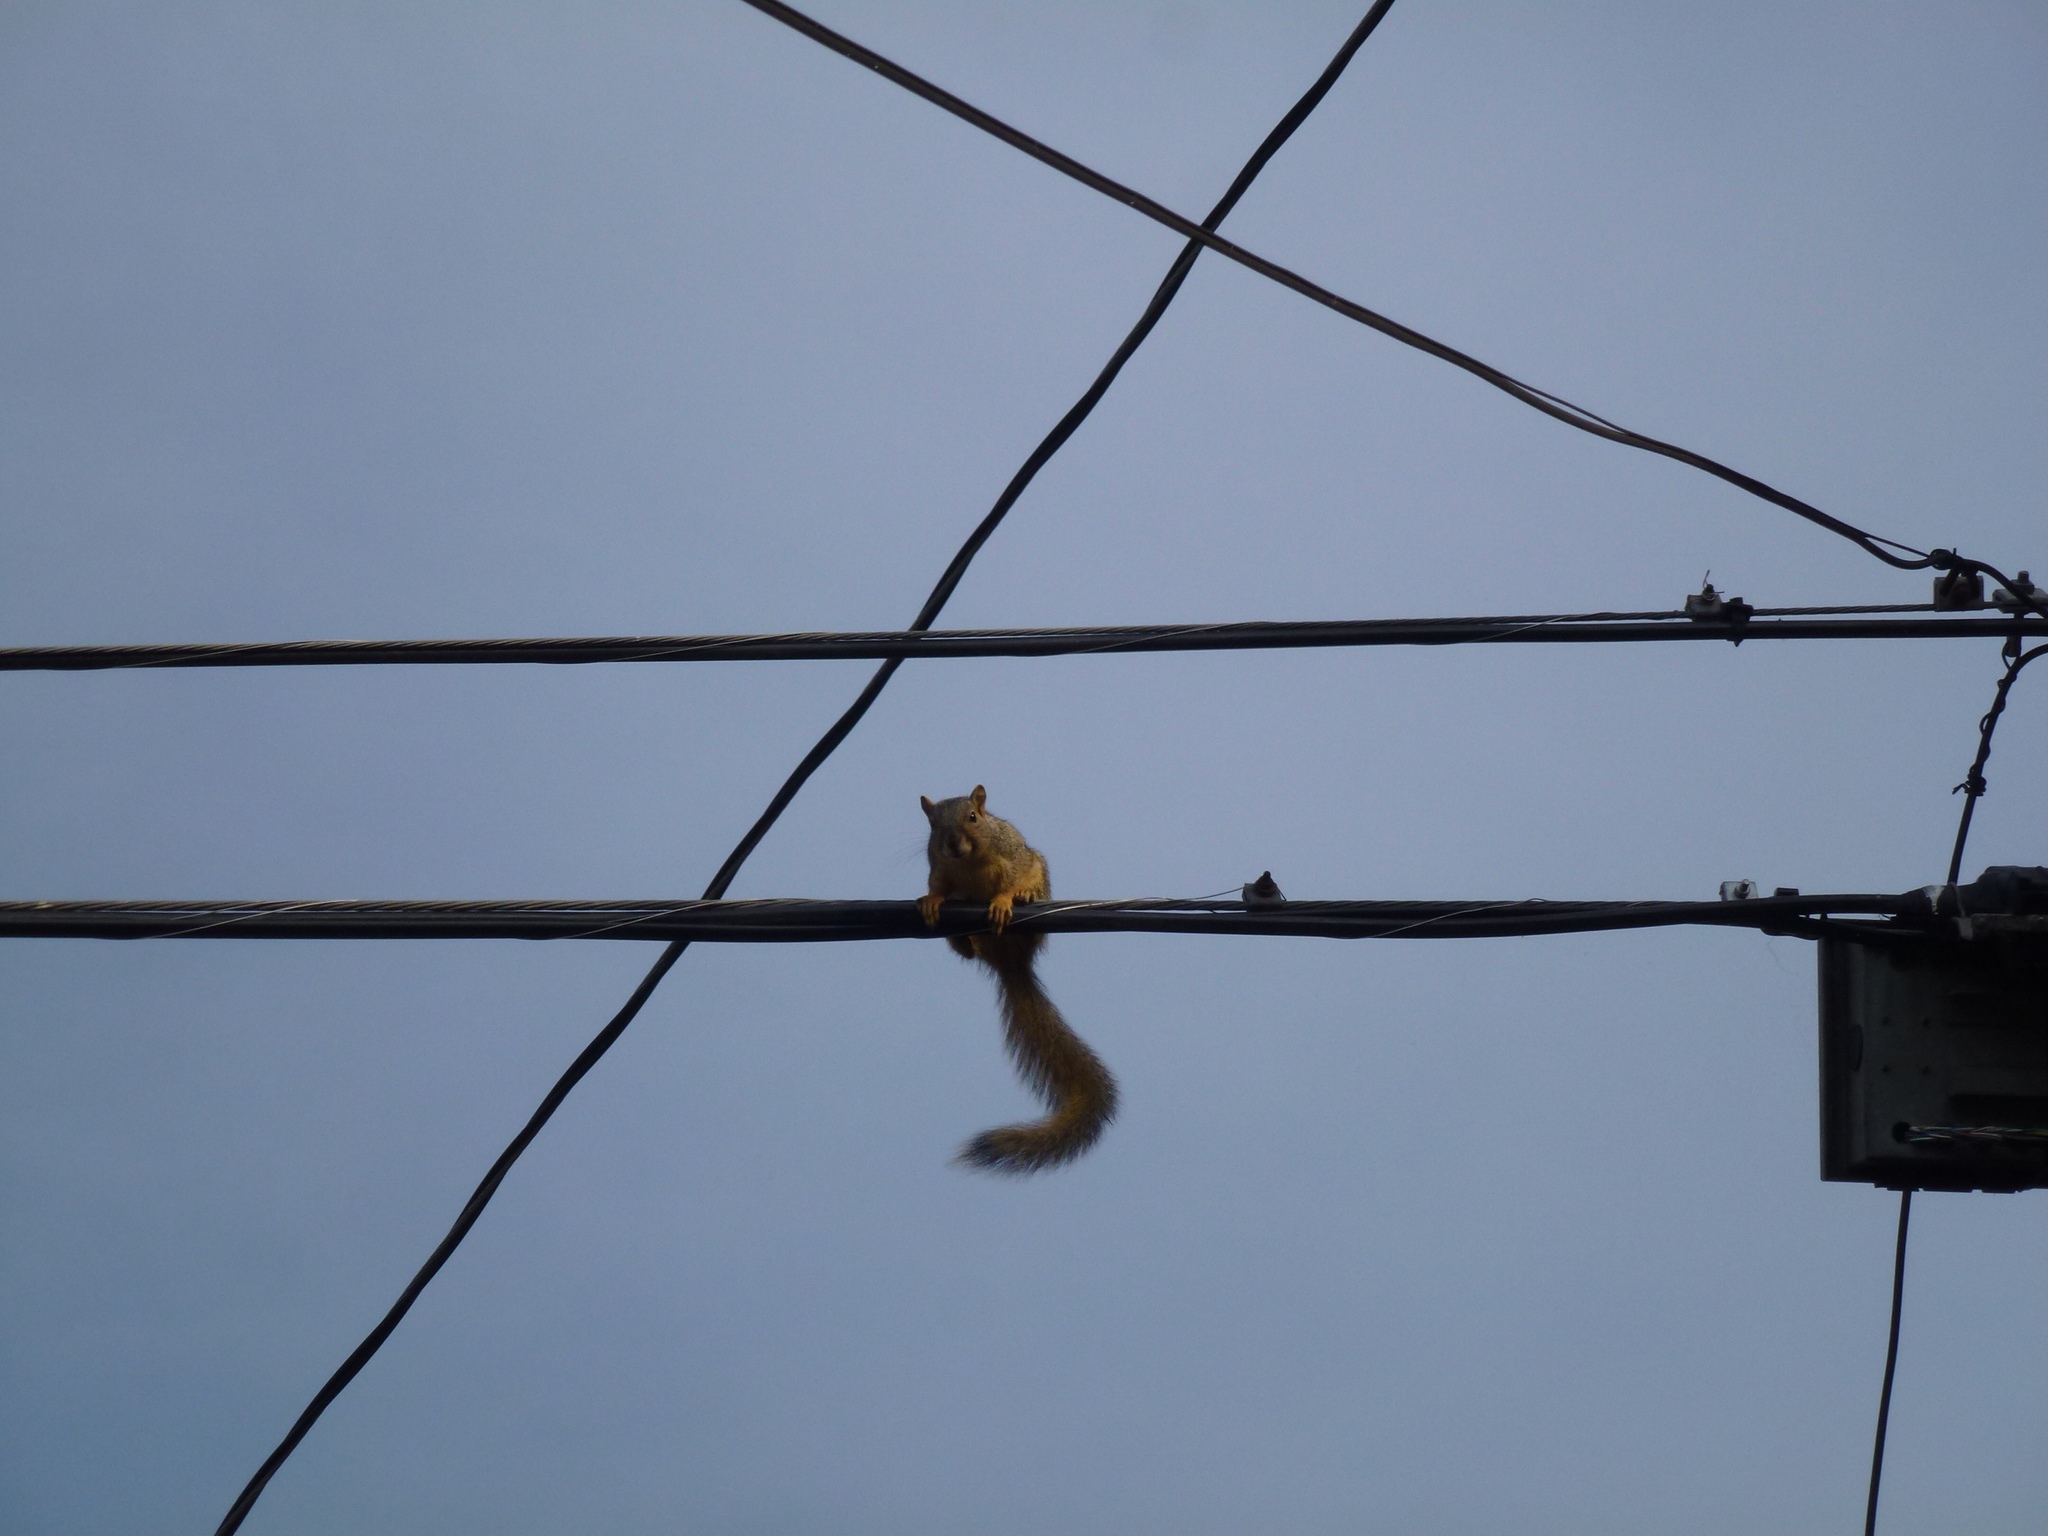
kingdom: Animalia
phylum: Chordata
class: Mammalia
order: Rodentia
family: Sciuridae
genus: Sciurus
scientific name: Sciurus niger
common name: Fox squirrel
